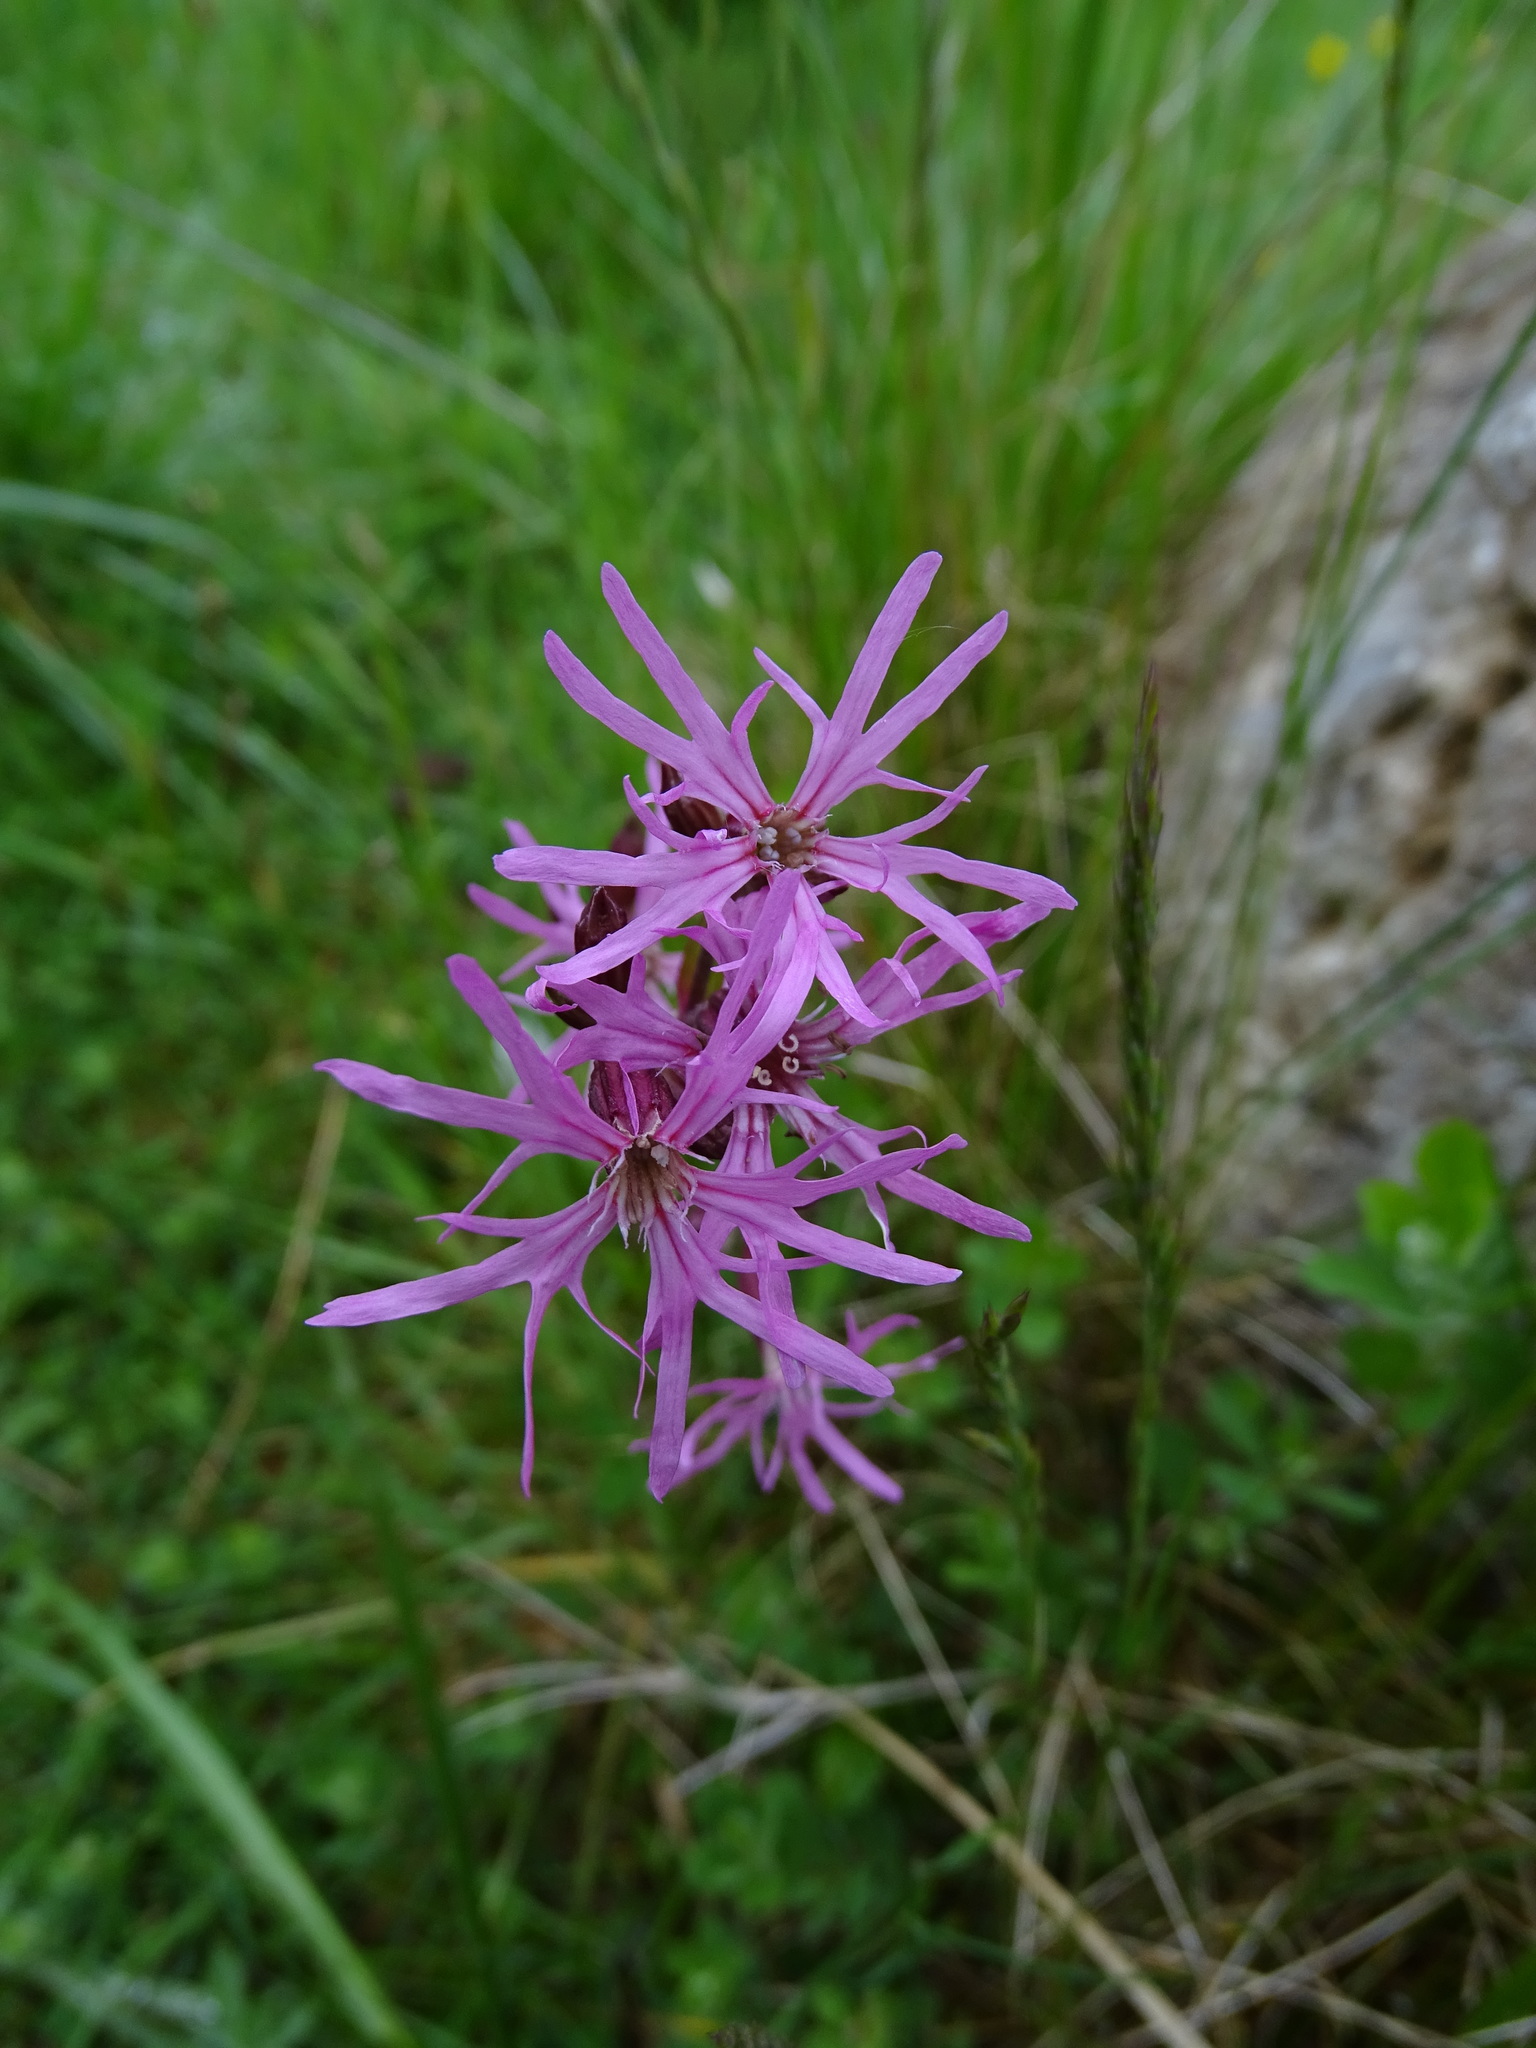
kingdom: Plantae
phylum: Tracheophyta
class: Magnoliopsida
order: Caryophyllales
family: Caryophyllaceae
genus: Silene
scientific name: Silene flos-cuculi
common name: Ragged-robin
